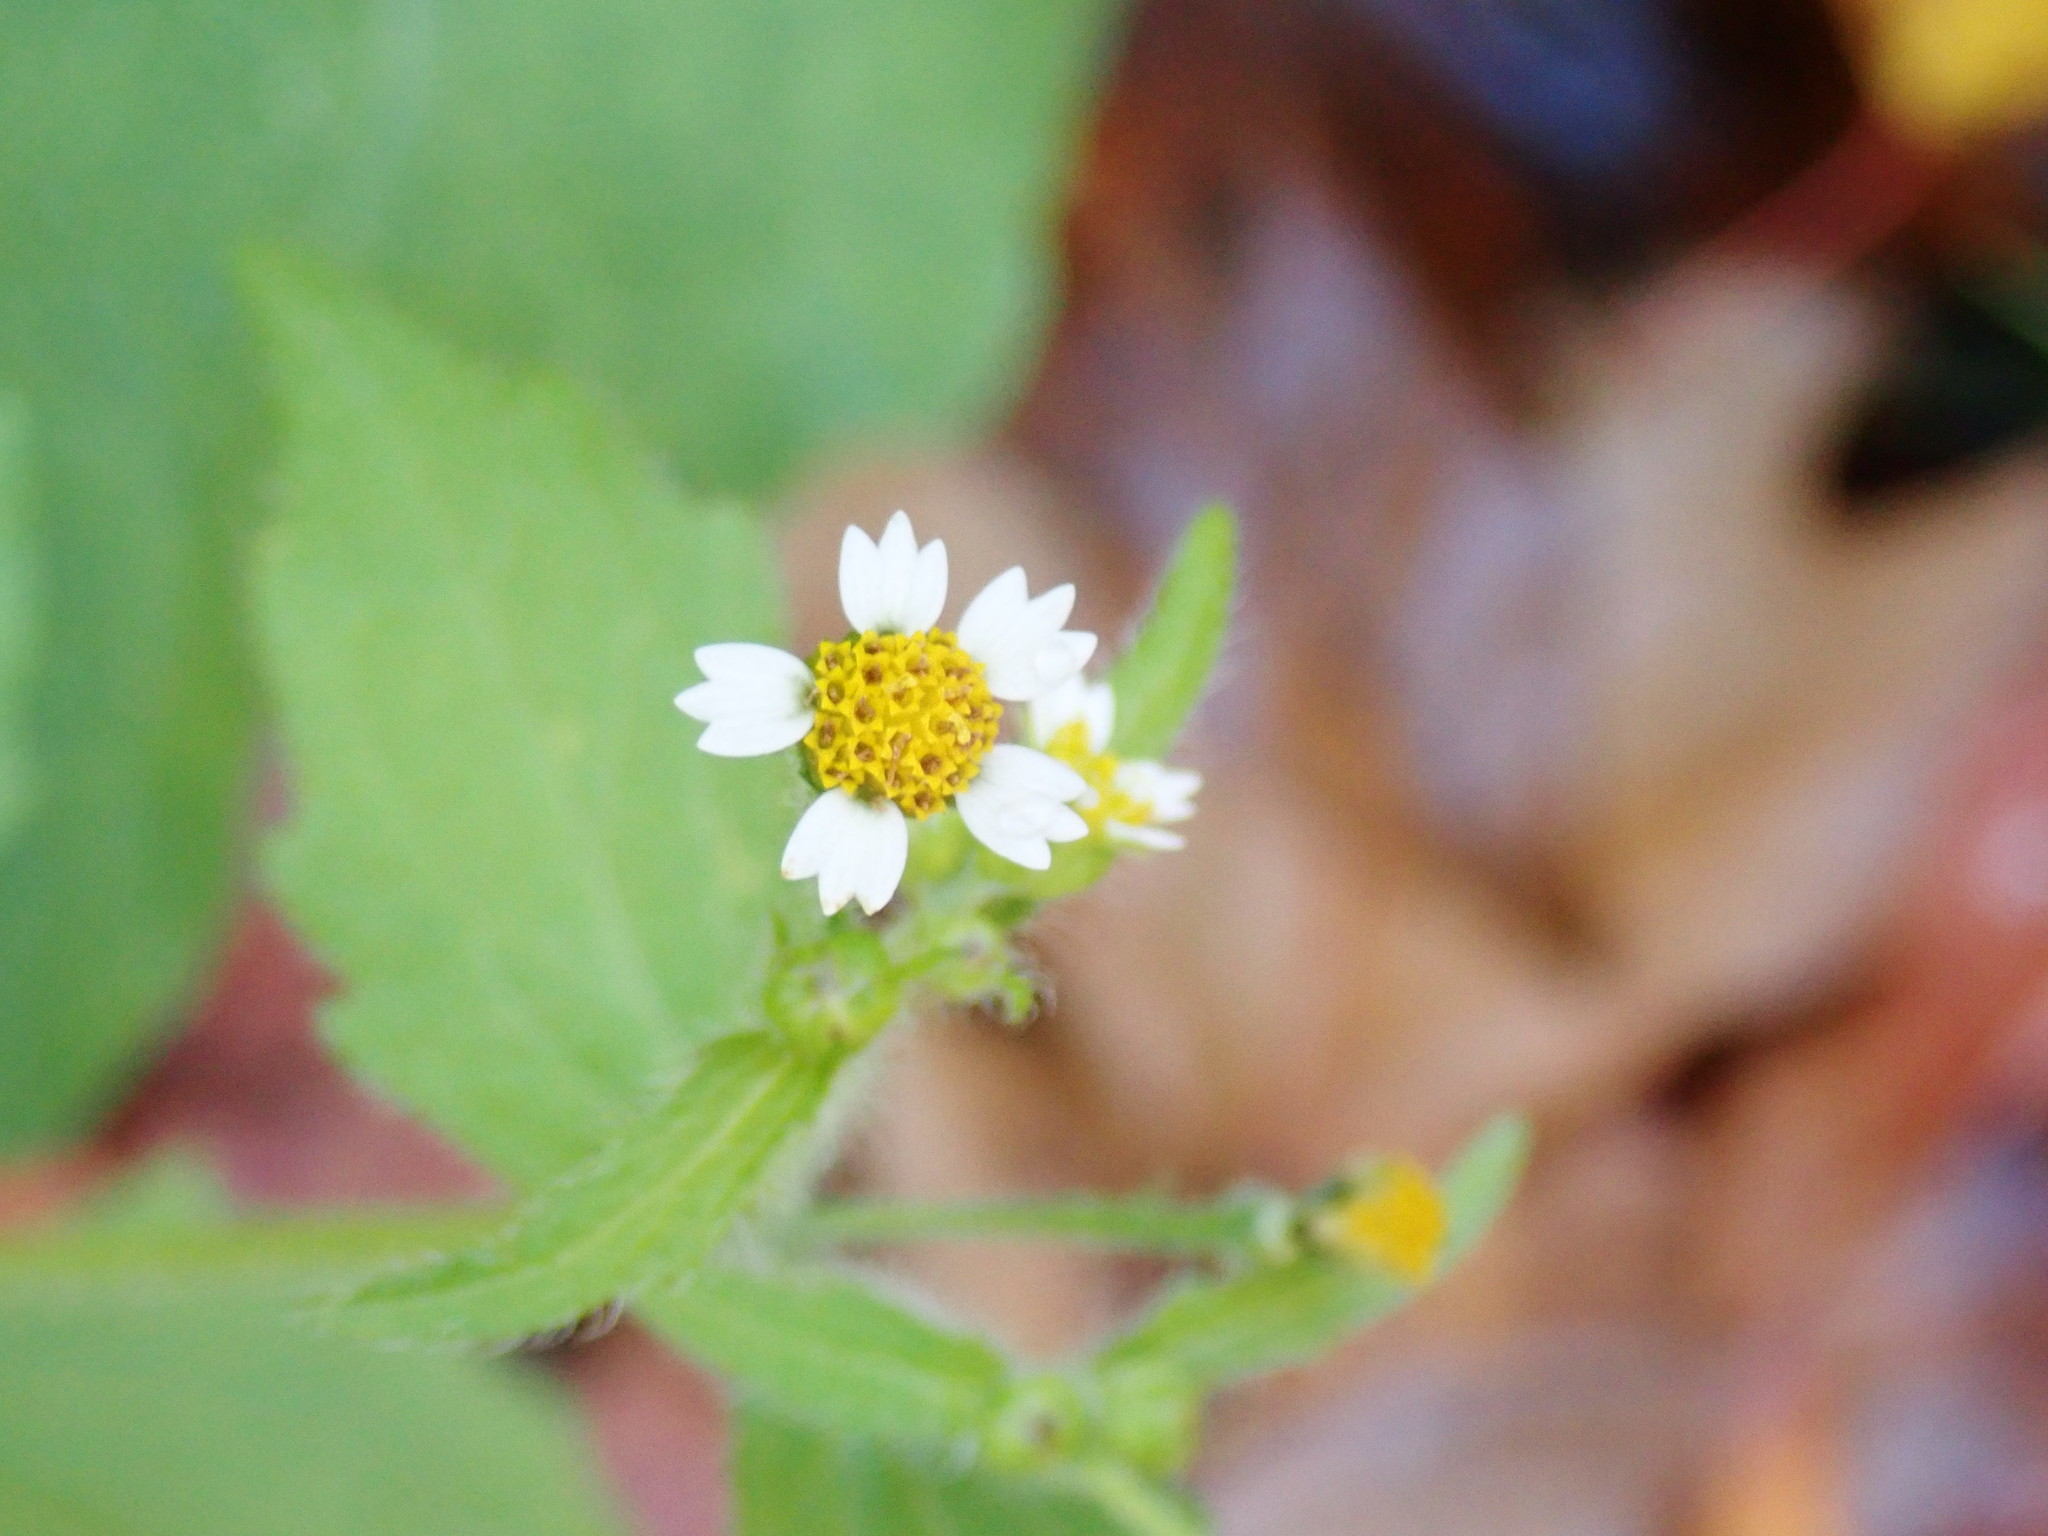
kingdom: Plantae
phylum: Tracheophyta
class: Magnoliopsida
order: Asterales
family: Asteraceae
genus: Galinsoga
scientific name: Galinsoga quadriradiata
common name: Shaggy soldier
